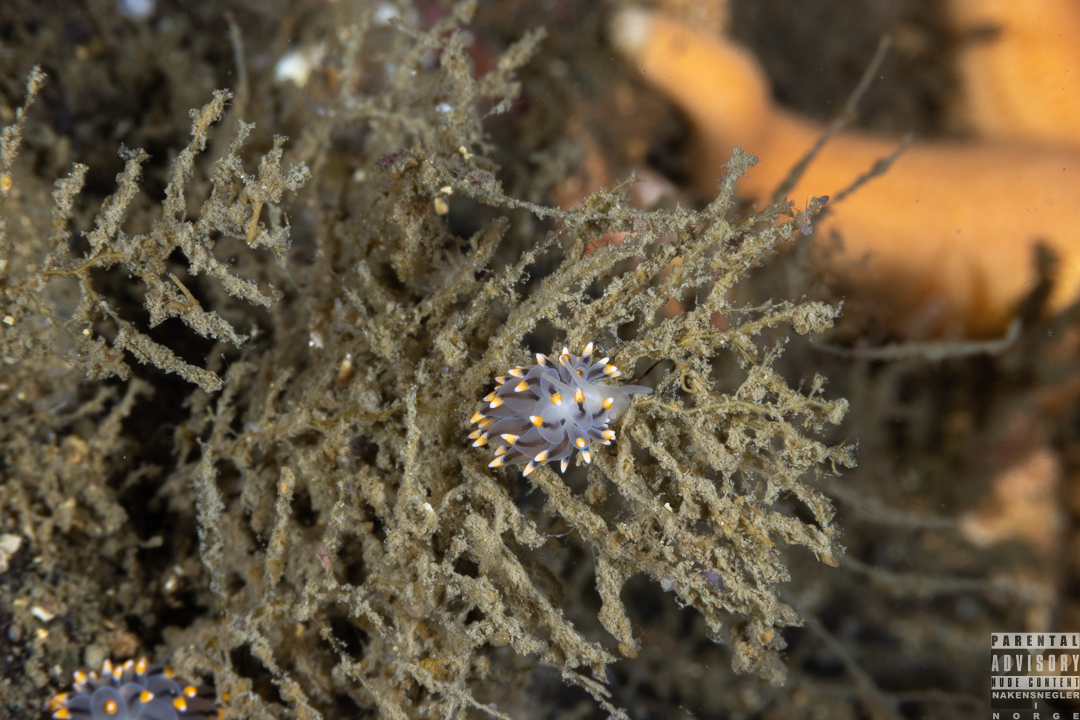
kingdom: Animalia
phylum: Mollusca
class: Gastropoda
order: Nudibranchia
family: Eubranchidae
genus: Eubranchus
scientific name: Eubranchus tricolor
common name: Painted balloon aeolis
